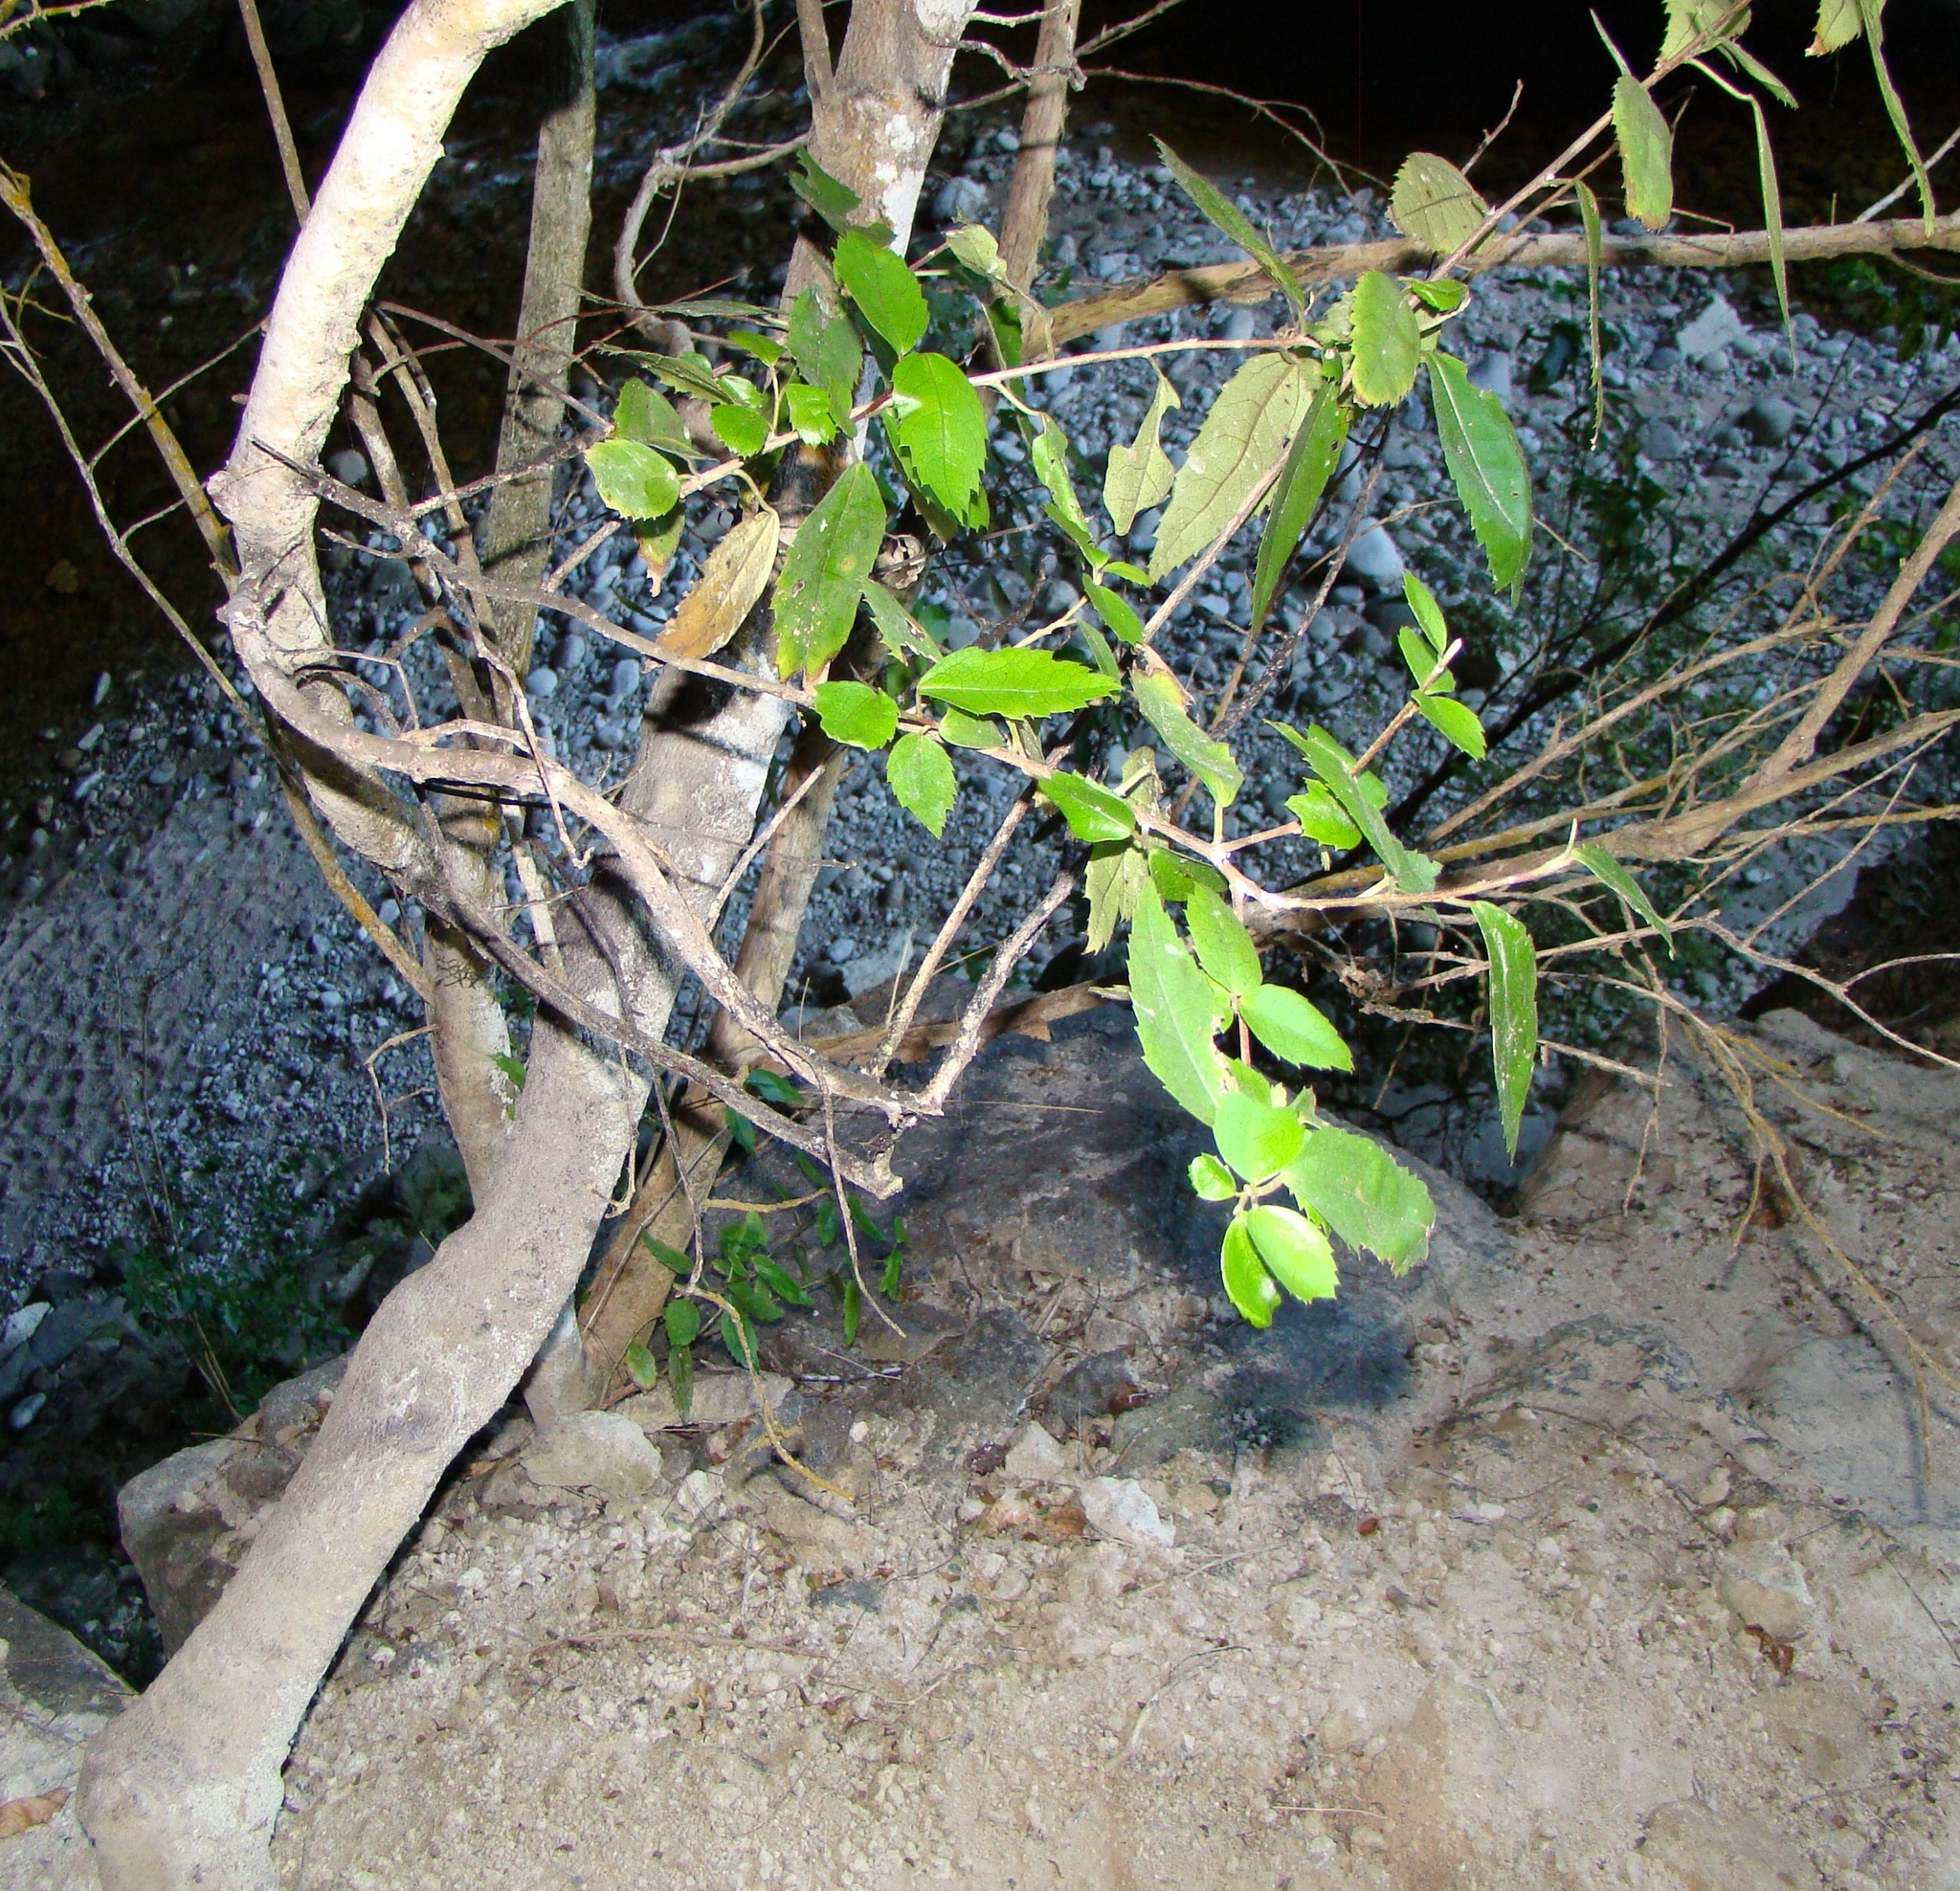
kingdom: Plantae
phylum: Tracheophyta
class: Magnoliopsida
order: Malvales
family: Malvaceae
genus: Hoheria
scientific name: Hoheria ovata
